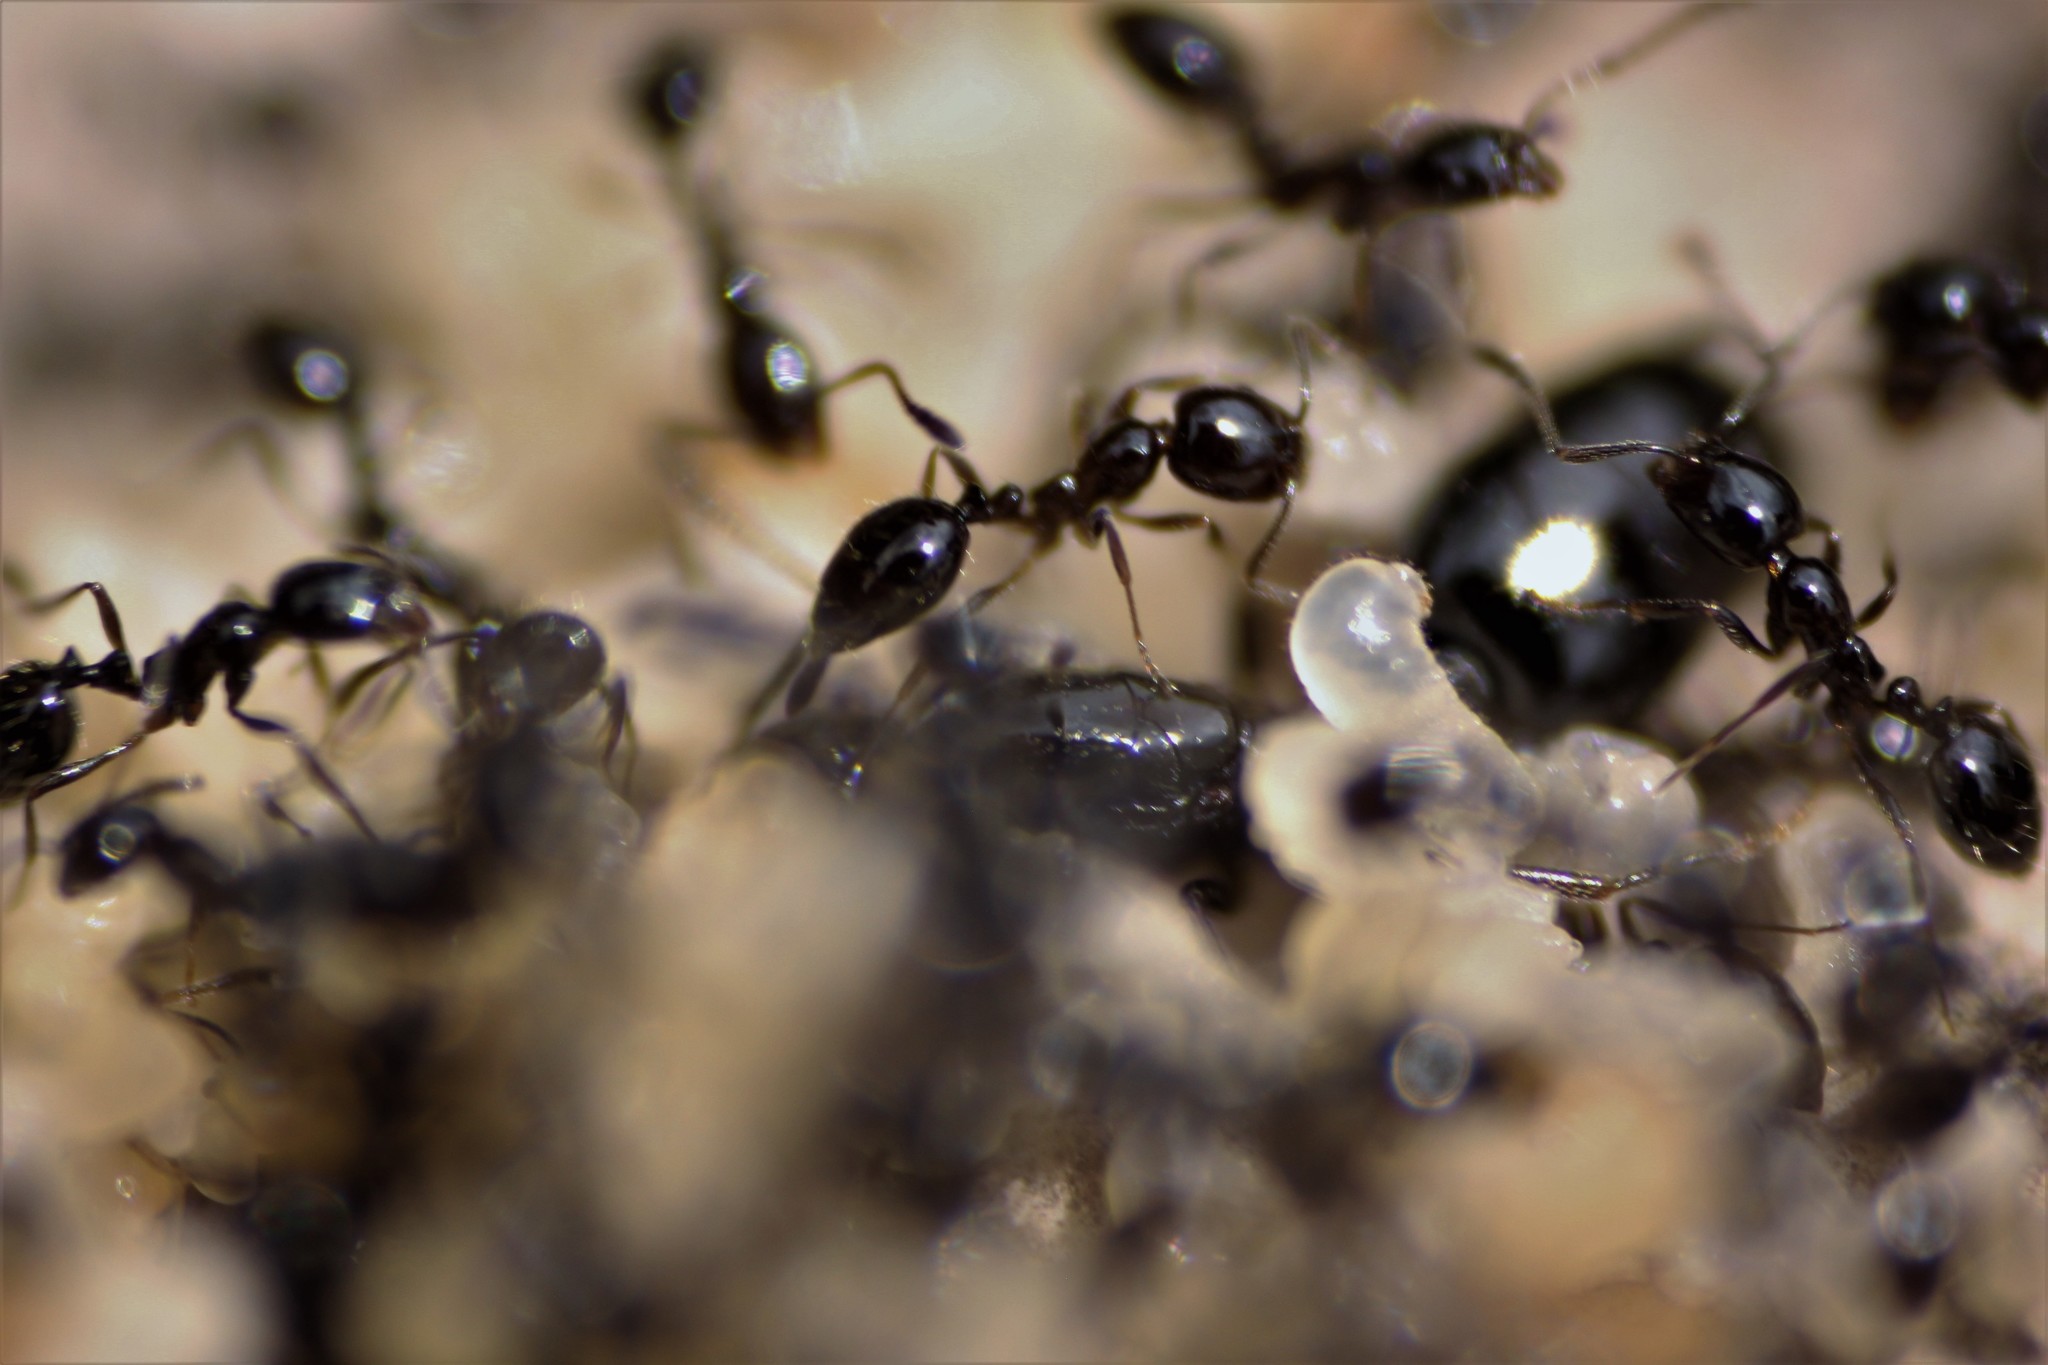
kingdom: Animalia
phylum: Arthropoda
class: Insecta
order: Hymenoptera
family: Formicidae
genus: Monomorium
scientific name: Monomorium
